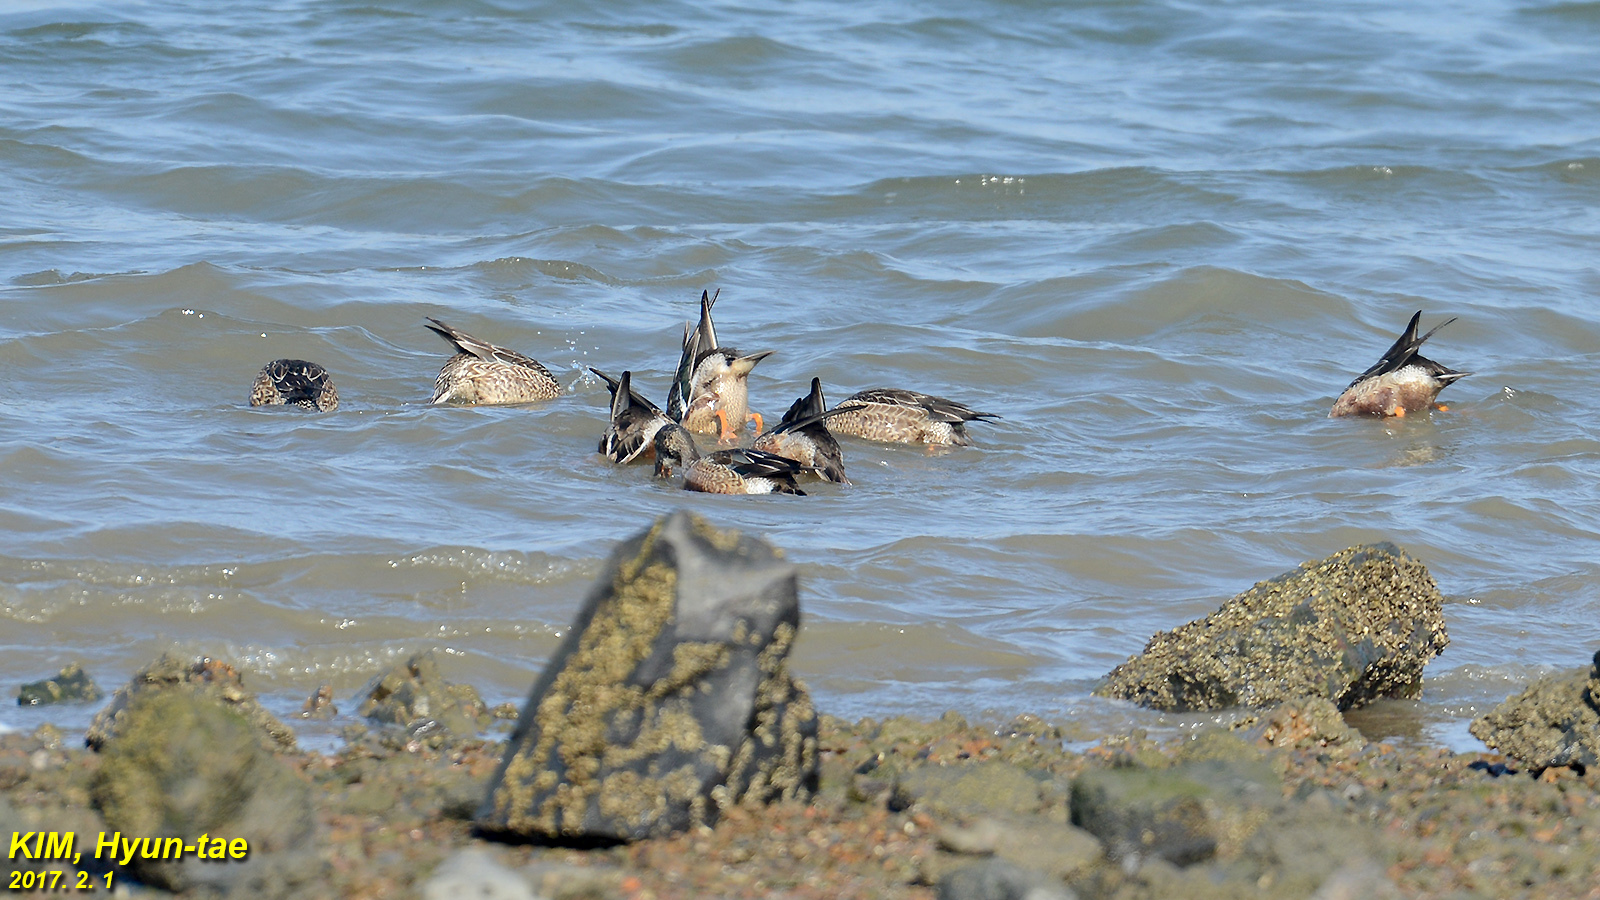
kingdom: Animalia
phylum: Chordata
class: Aves
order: Anseriformes
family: Anatidae
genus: Spatula
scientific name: Spatula clypeata
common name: Northern shoveler
